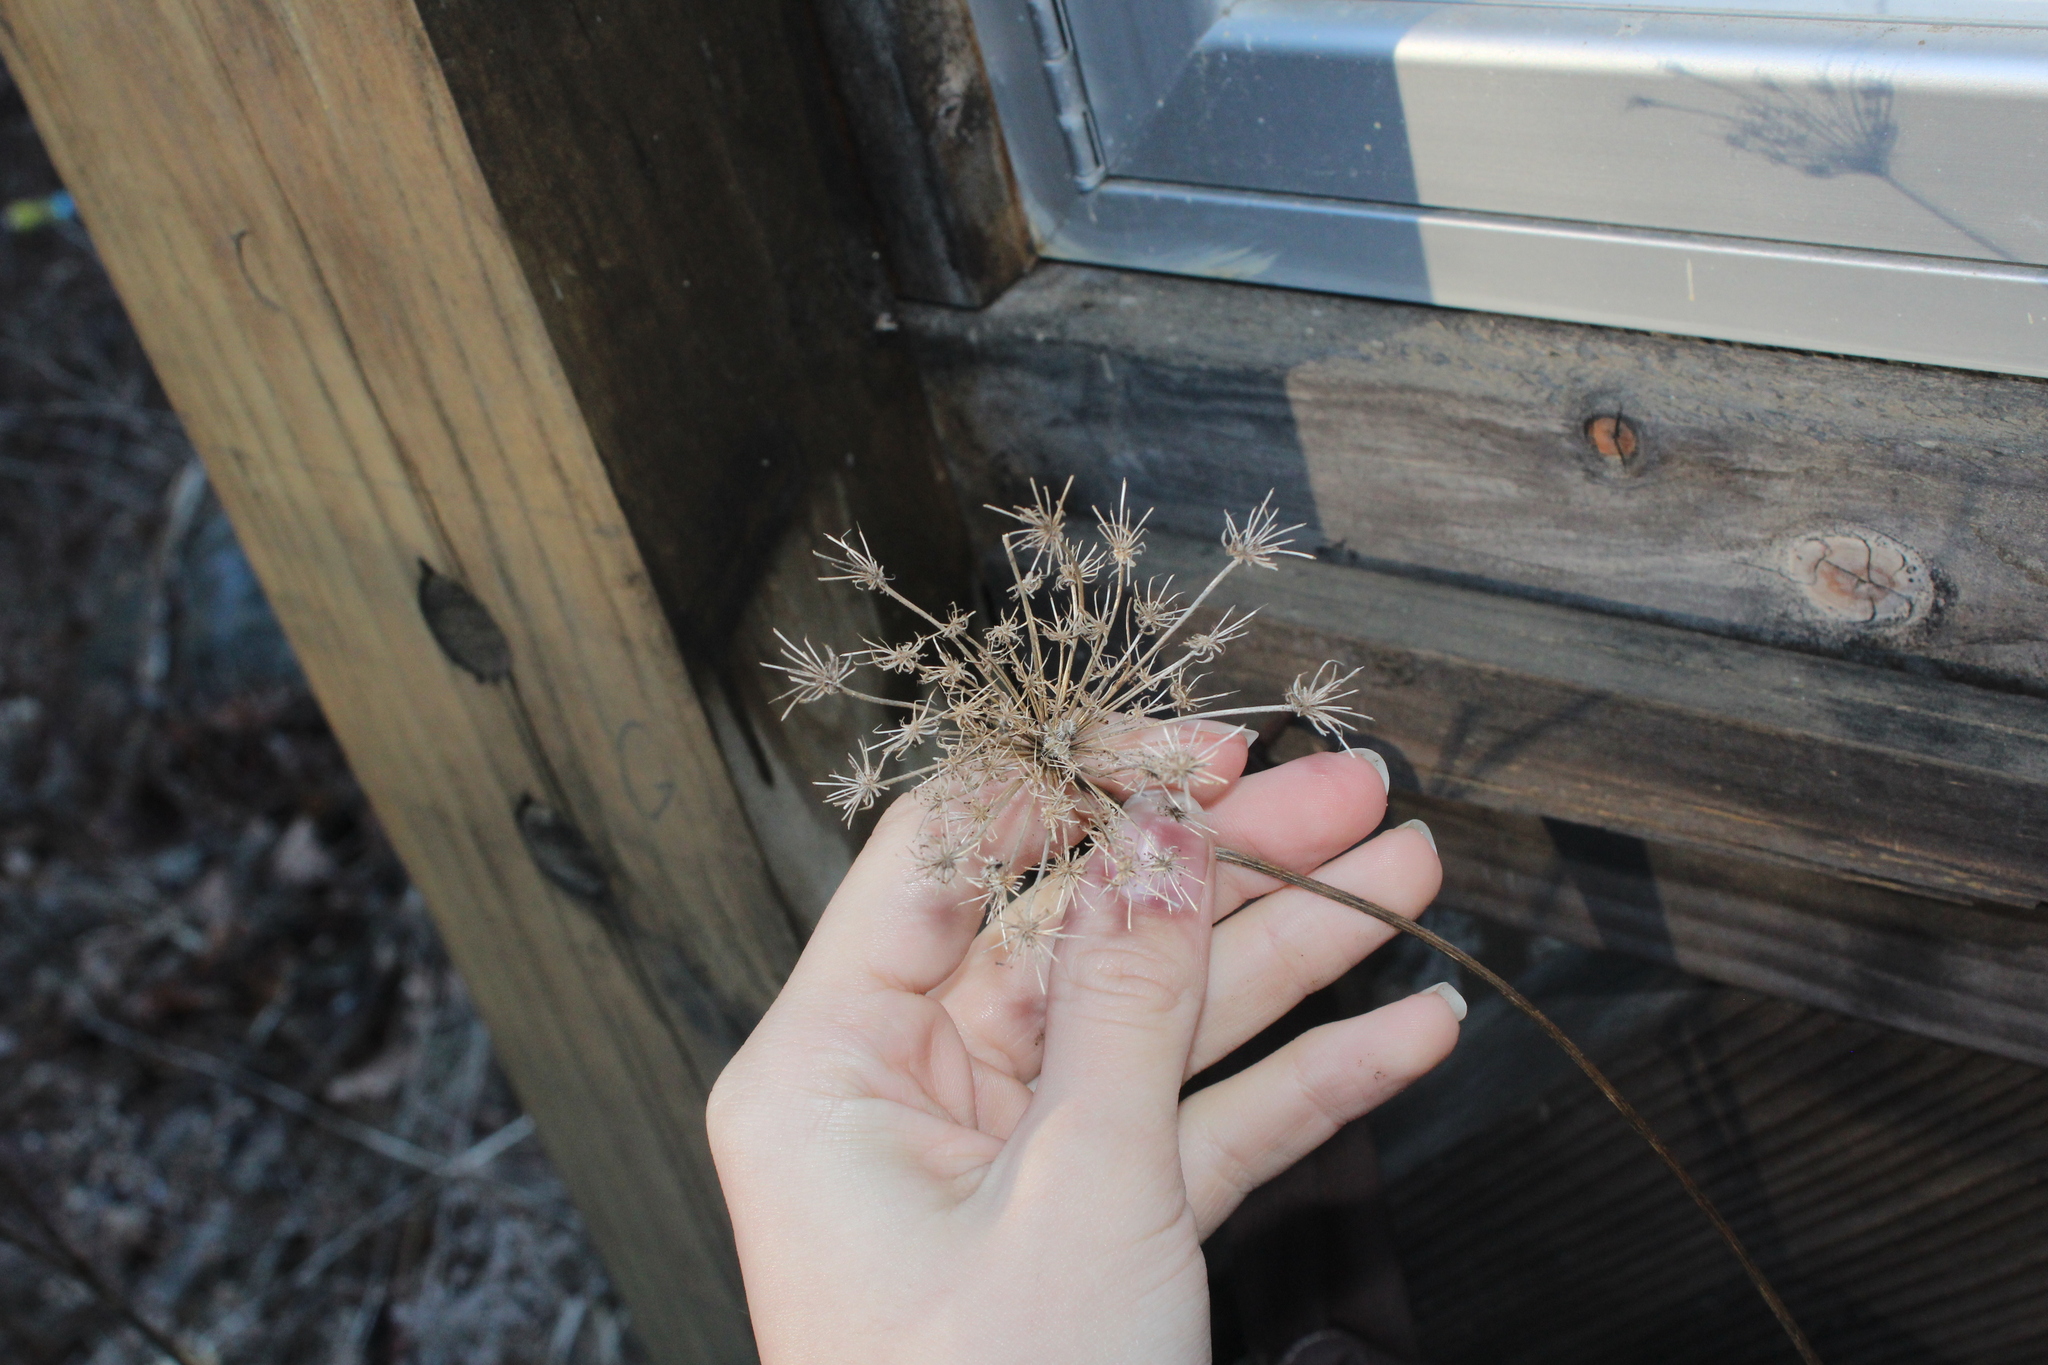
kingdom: Plantae
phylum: Tracheophyta
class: Magnoliopsida
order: Apiales
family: Apiaceae
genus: Daucus
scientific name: Daucus carota
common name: Wild carrot
